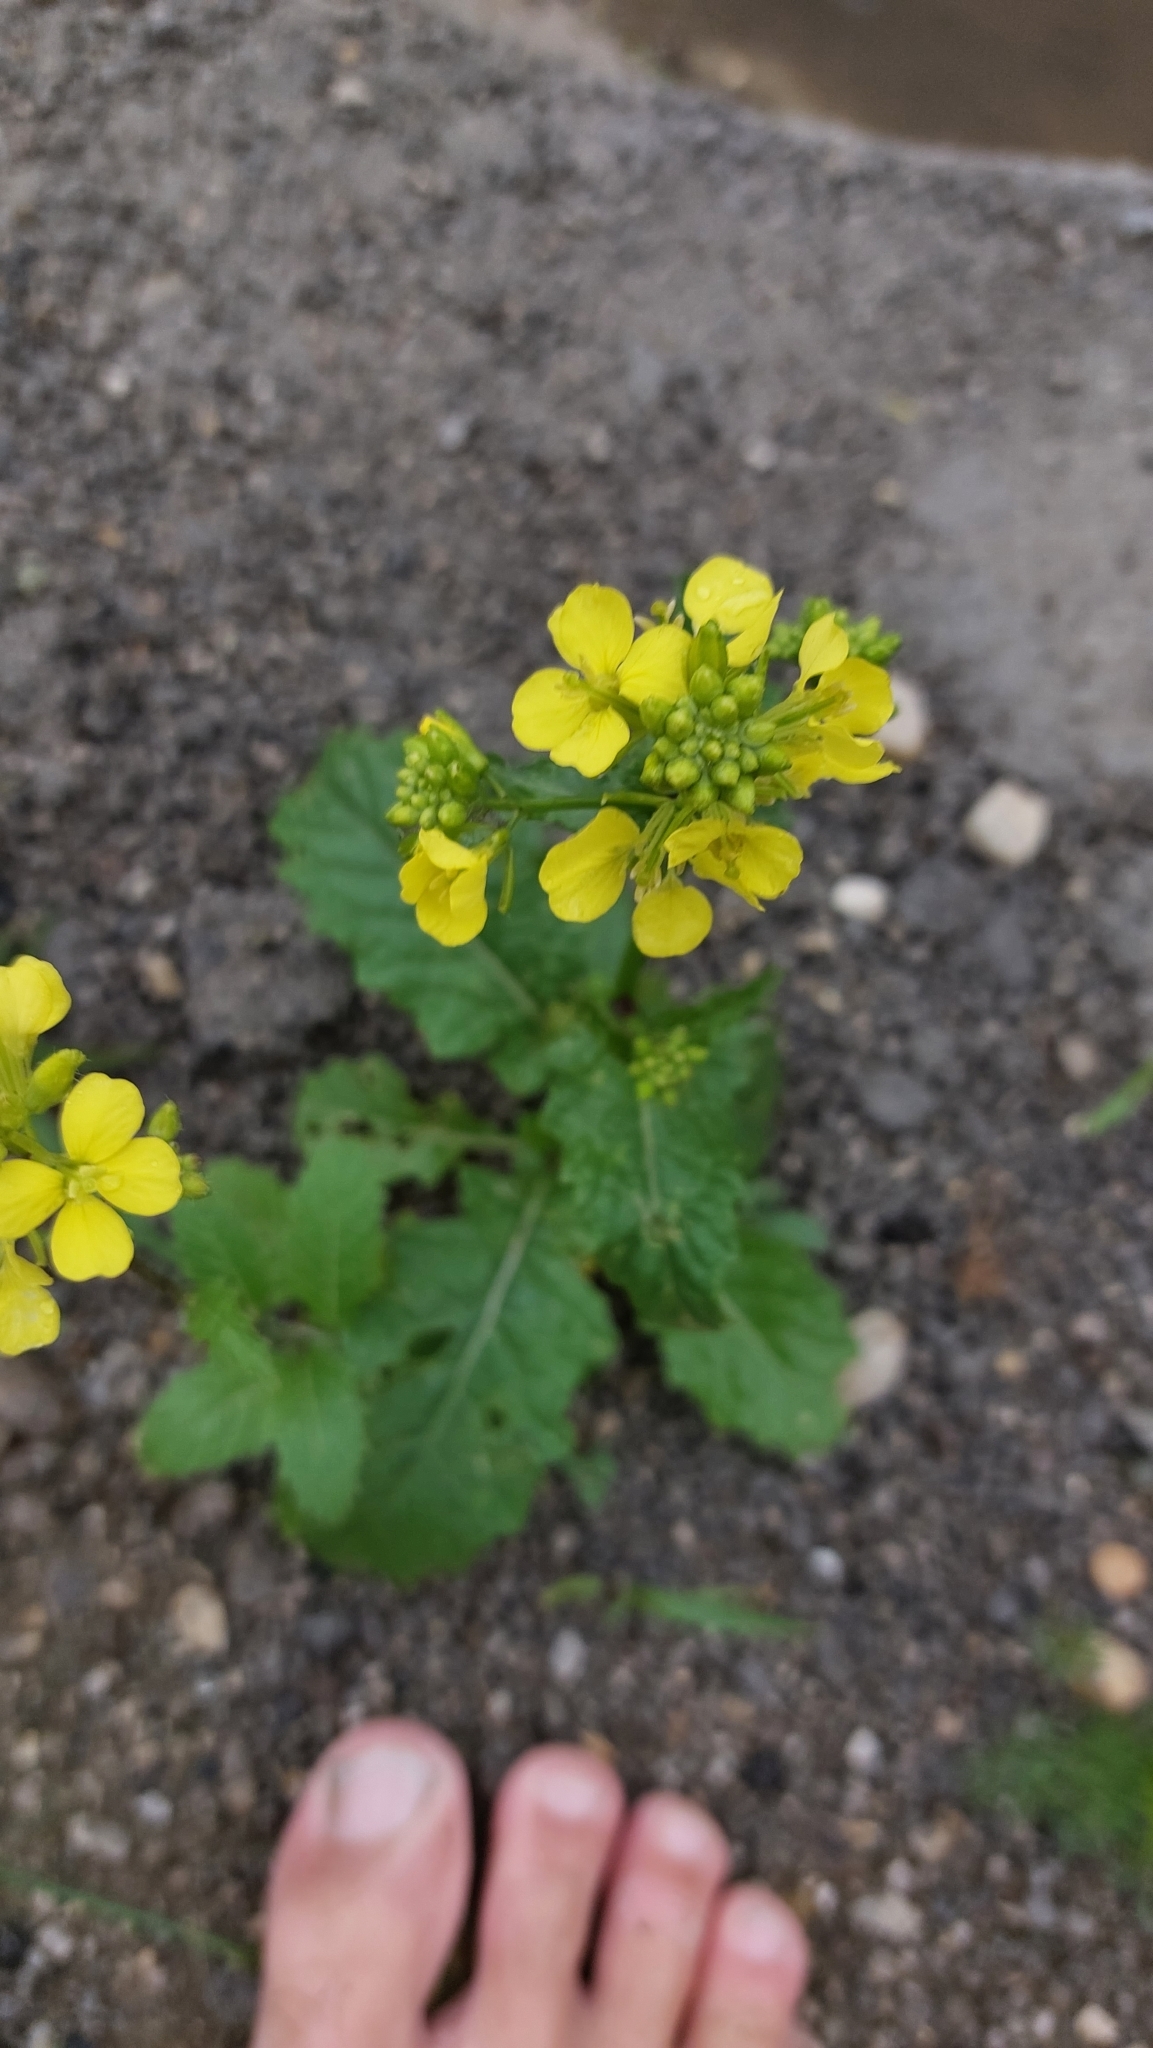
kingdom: Plantae
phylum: Tracheophyta
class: Magnoliopsida
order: Brassicales
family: Brassicaceae
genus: Sinapis
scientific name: Sinapis arvensis
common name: Charlock
